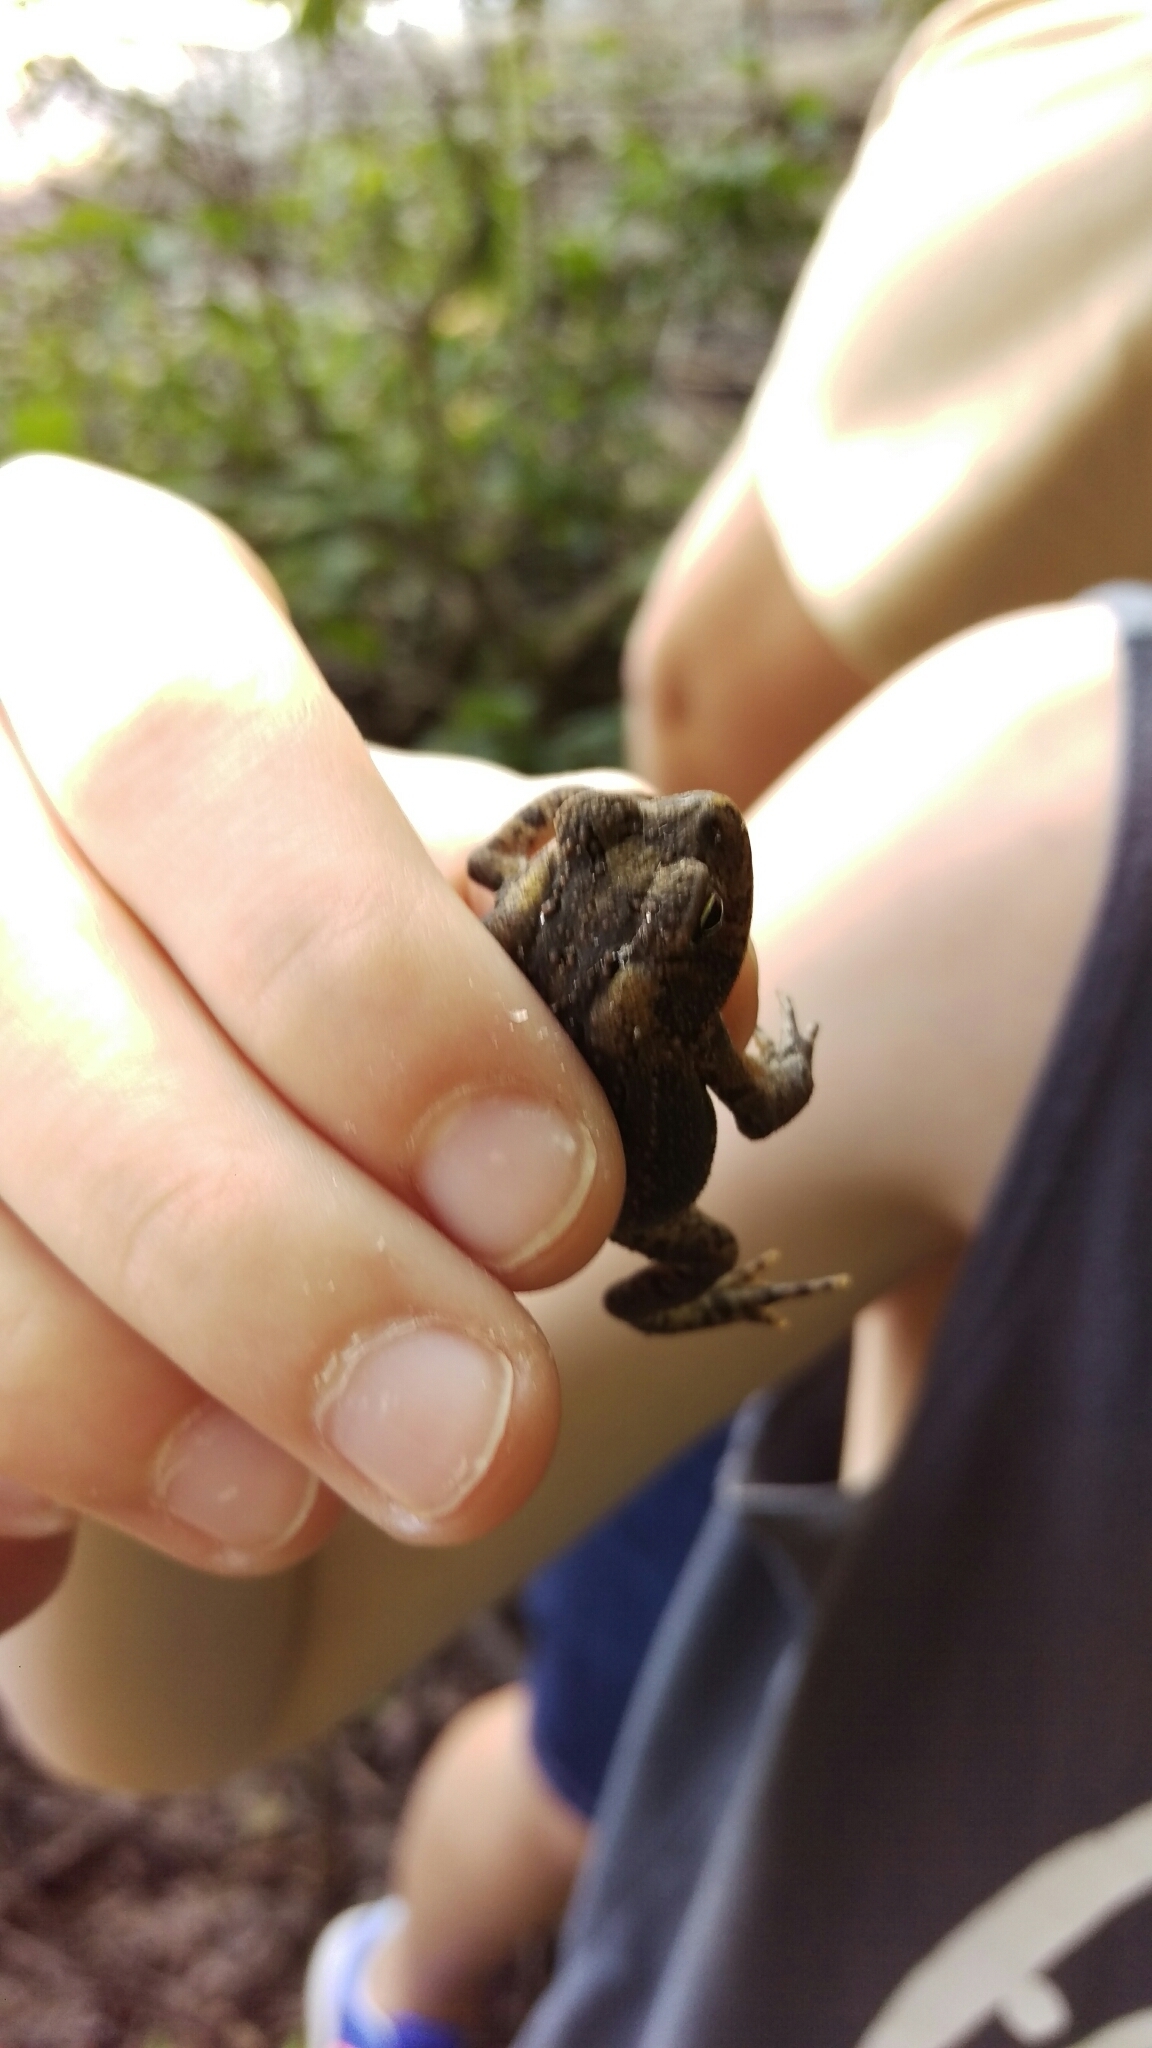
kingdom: Animalia
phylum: Chordata
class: Amphibia
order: Anura
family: Bufonidae
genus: Anaxyrus
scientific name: Anaxyrus americanus
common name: American toad
